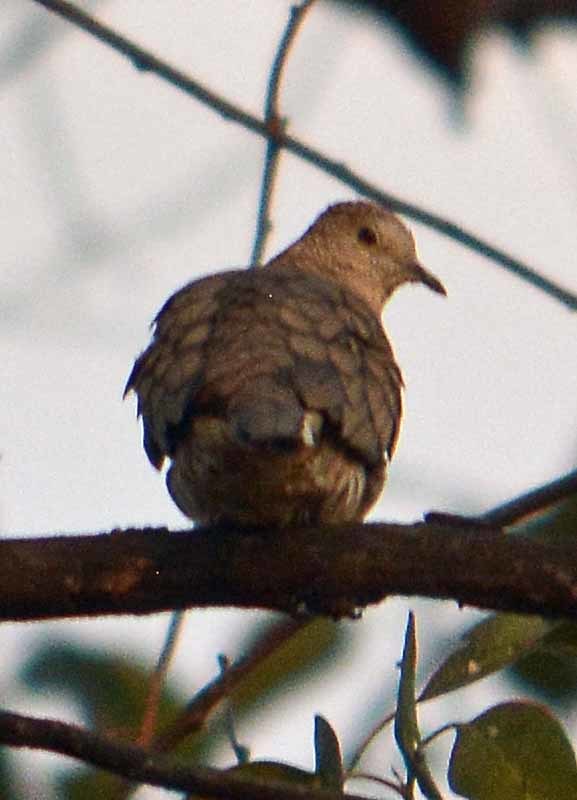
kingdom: Animalia
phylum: Chordata
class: Aves
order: Columbiformes
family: Columbidae
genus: Columbina
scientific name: Columbina inca
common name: Inca dove
